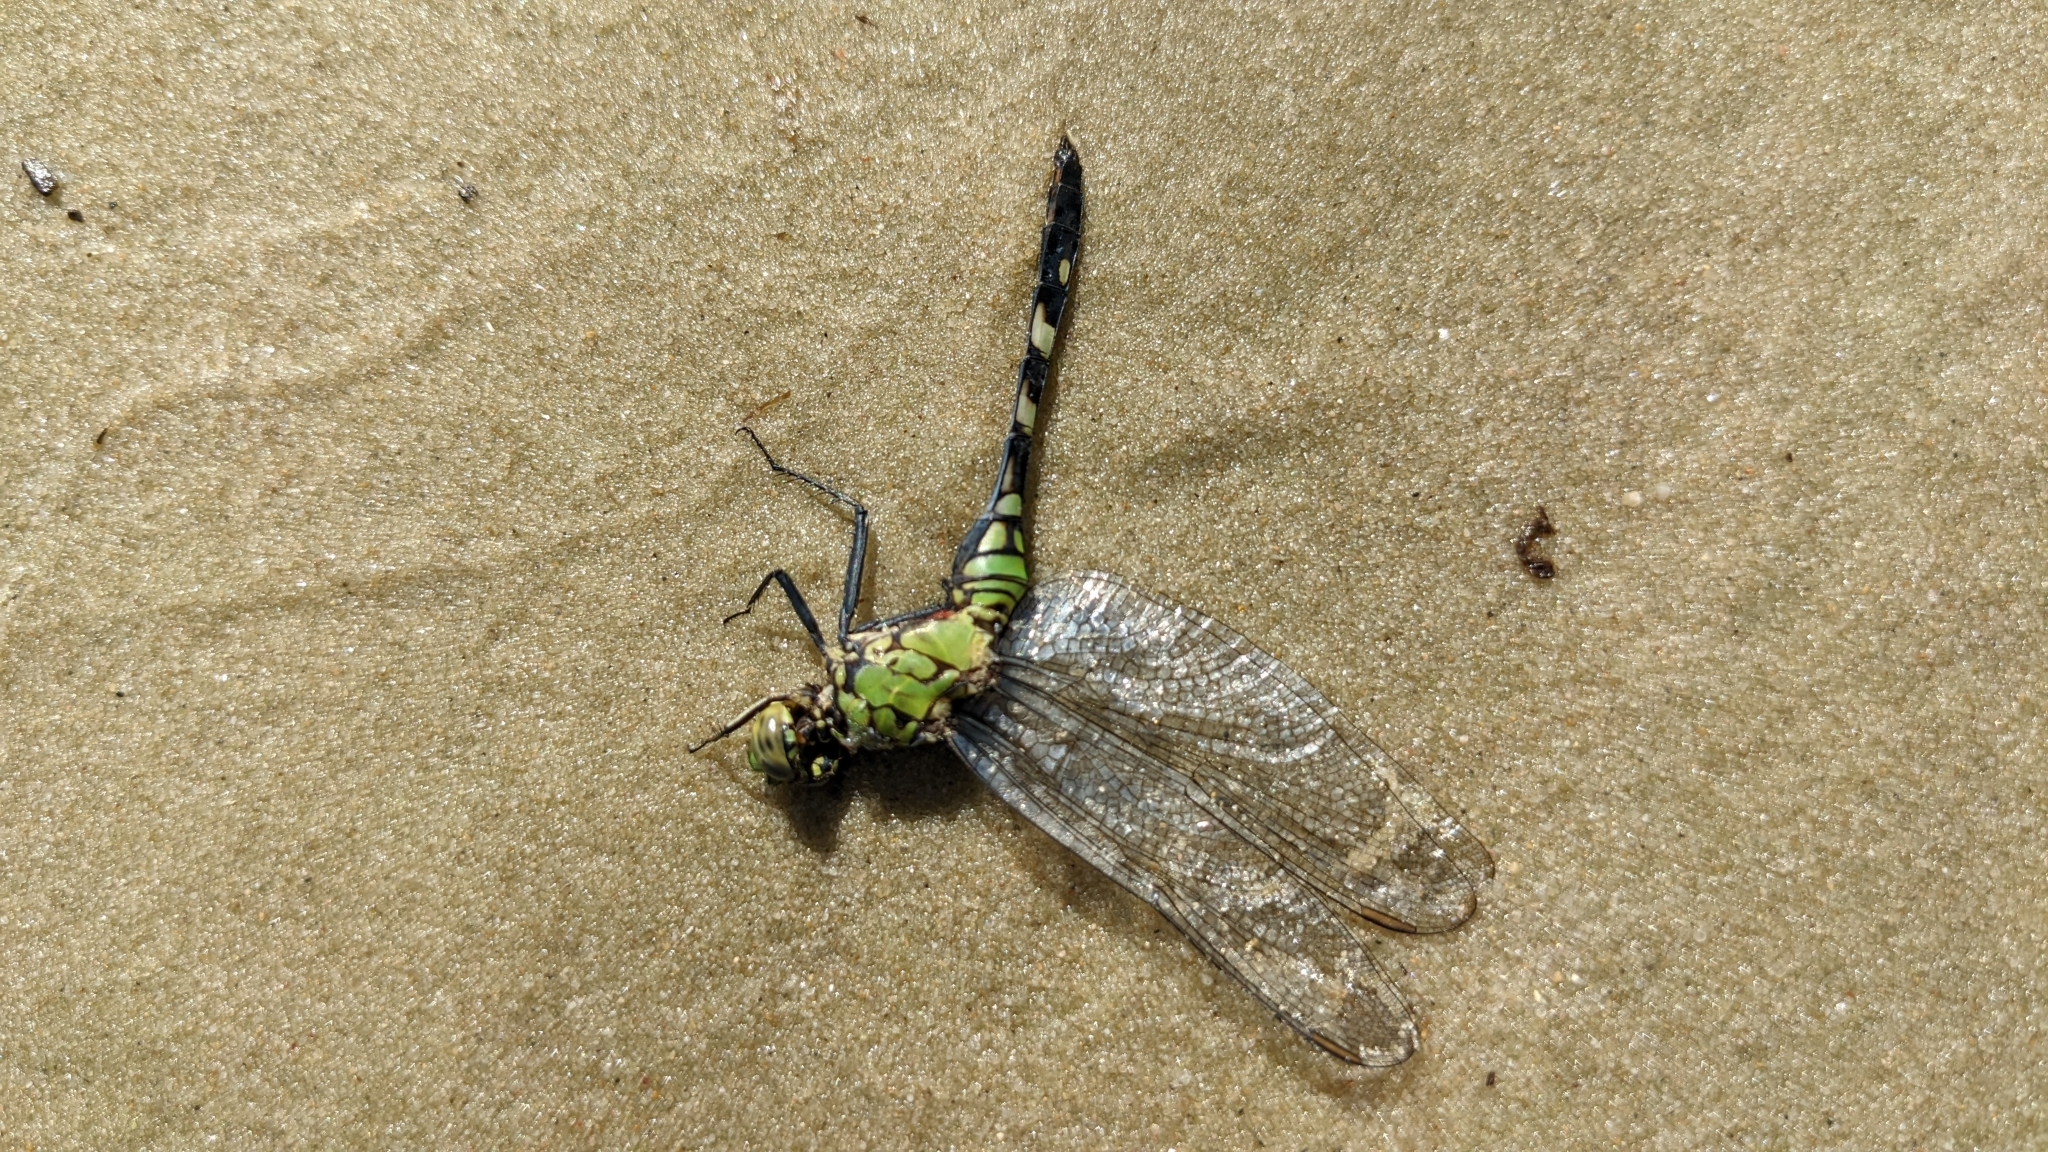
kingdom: Animalia
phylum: Arthropoda
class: Insecta
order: Odonata
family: Libellulidae
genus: Erythemis
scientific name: Erythemis simplicicollis
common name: Eastern pondhawk
